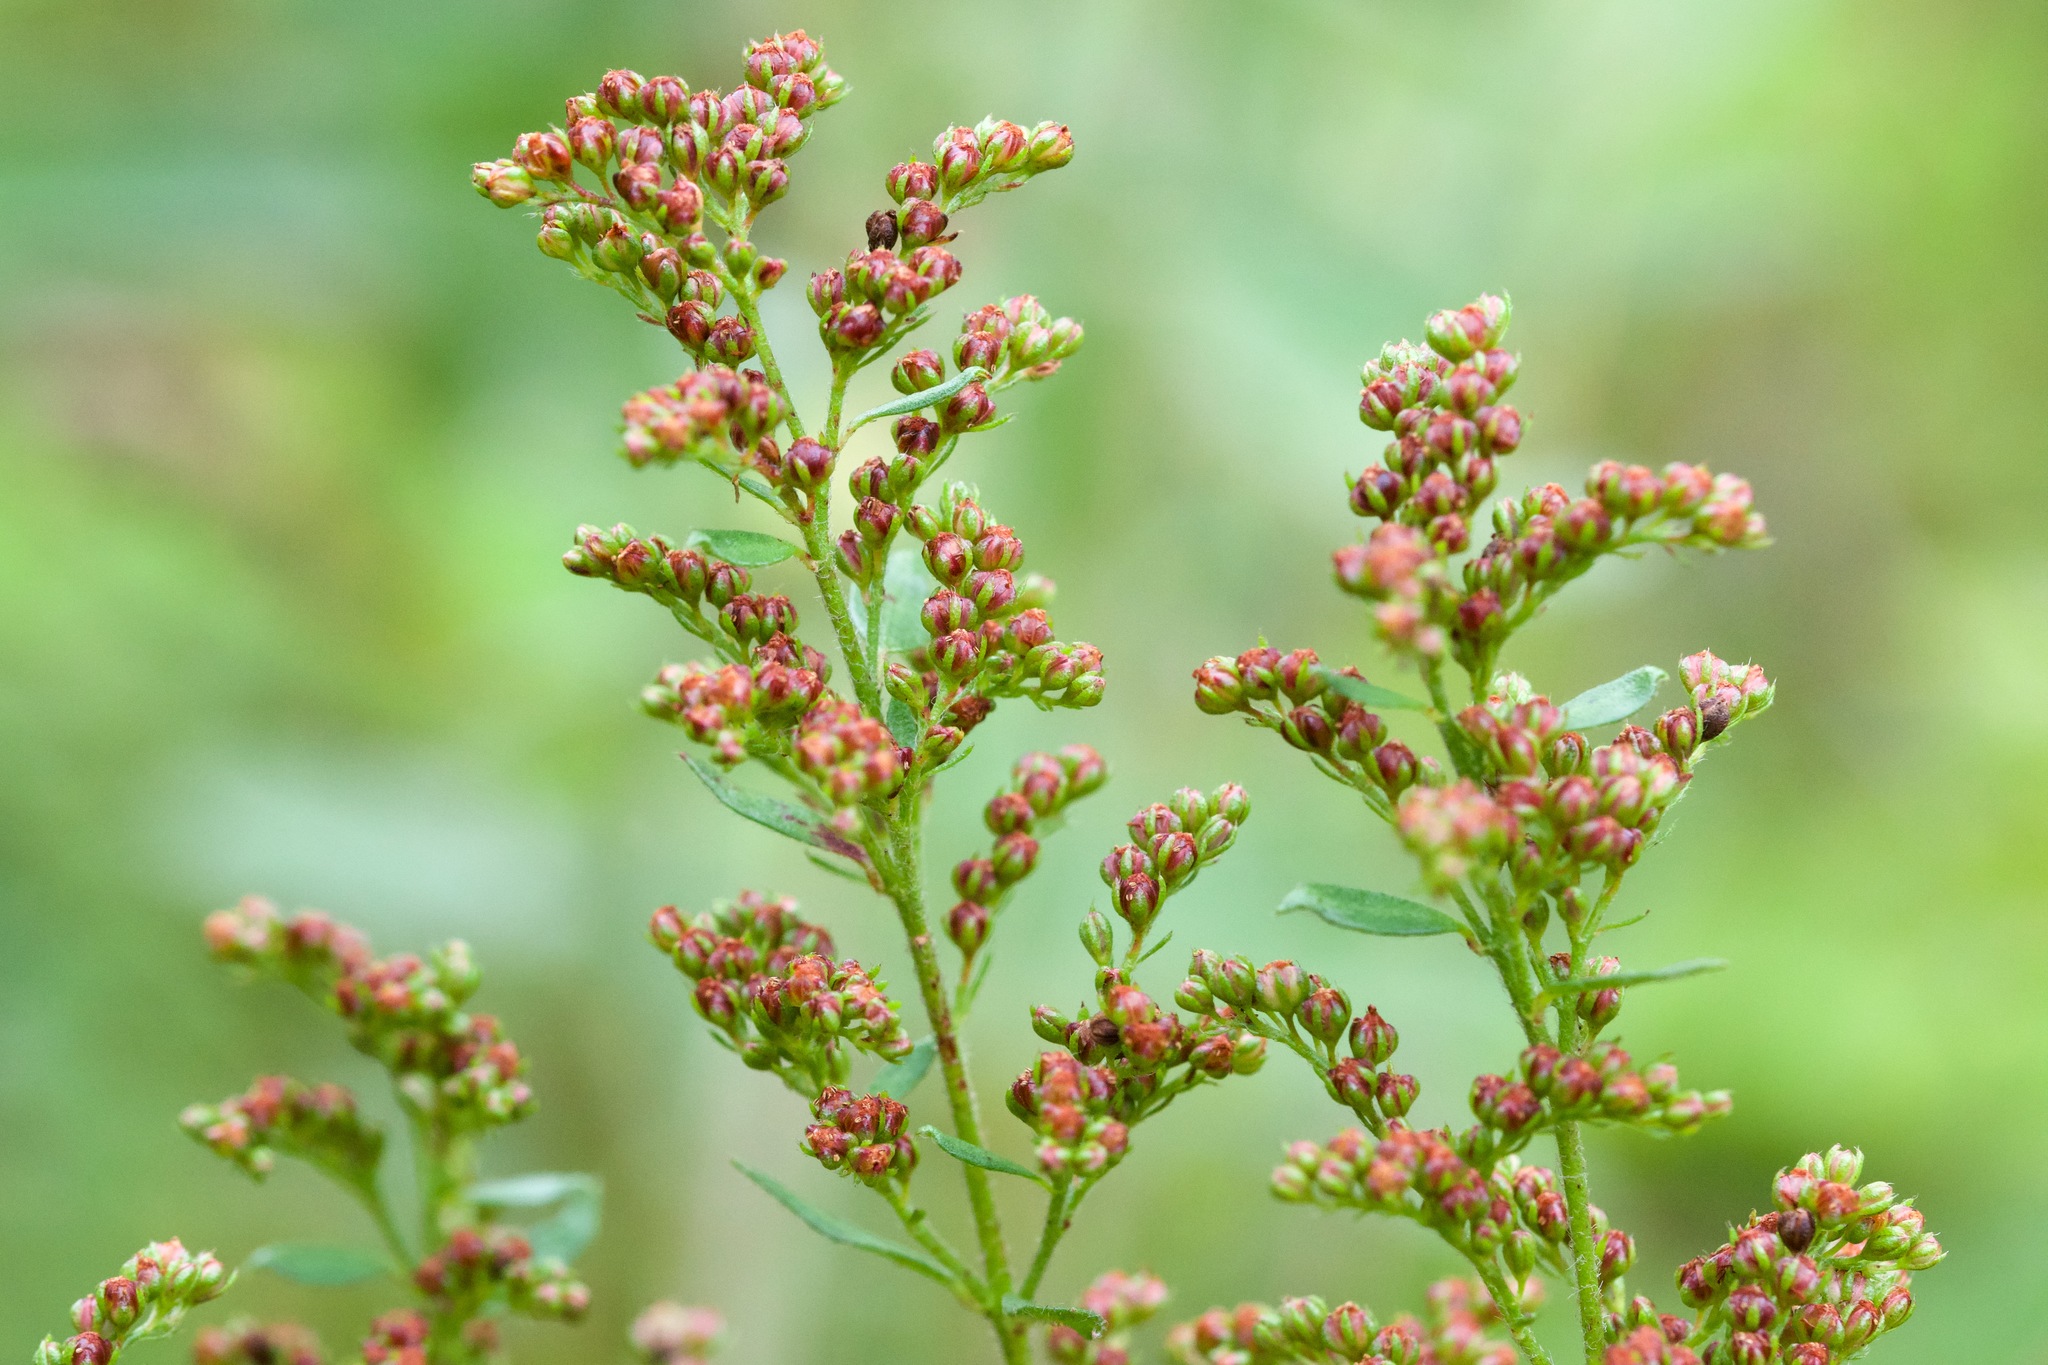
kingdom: Plantae
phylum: Tracheophyta
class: Magnoliopsida
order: Malvales
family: Cistaceae
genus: Lechea
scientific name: Lechea mucronata
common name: Hairy pinweed
